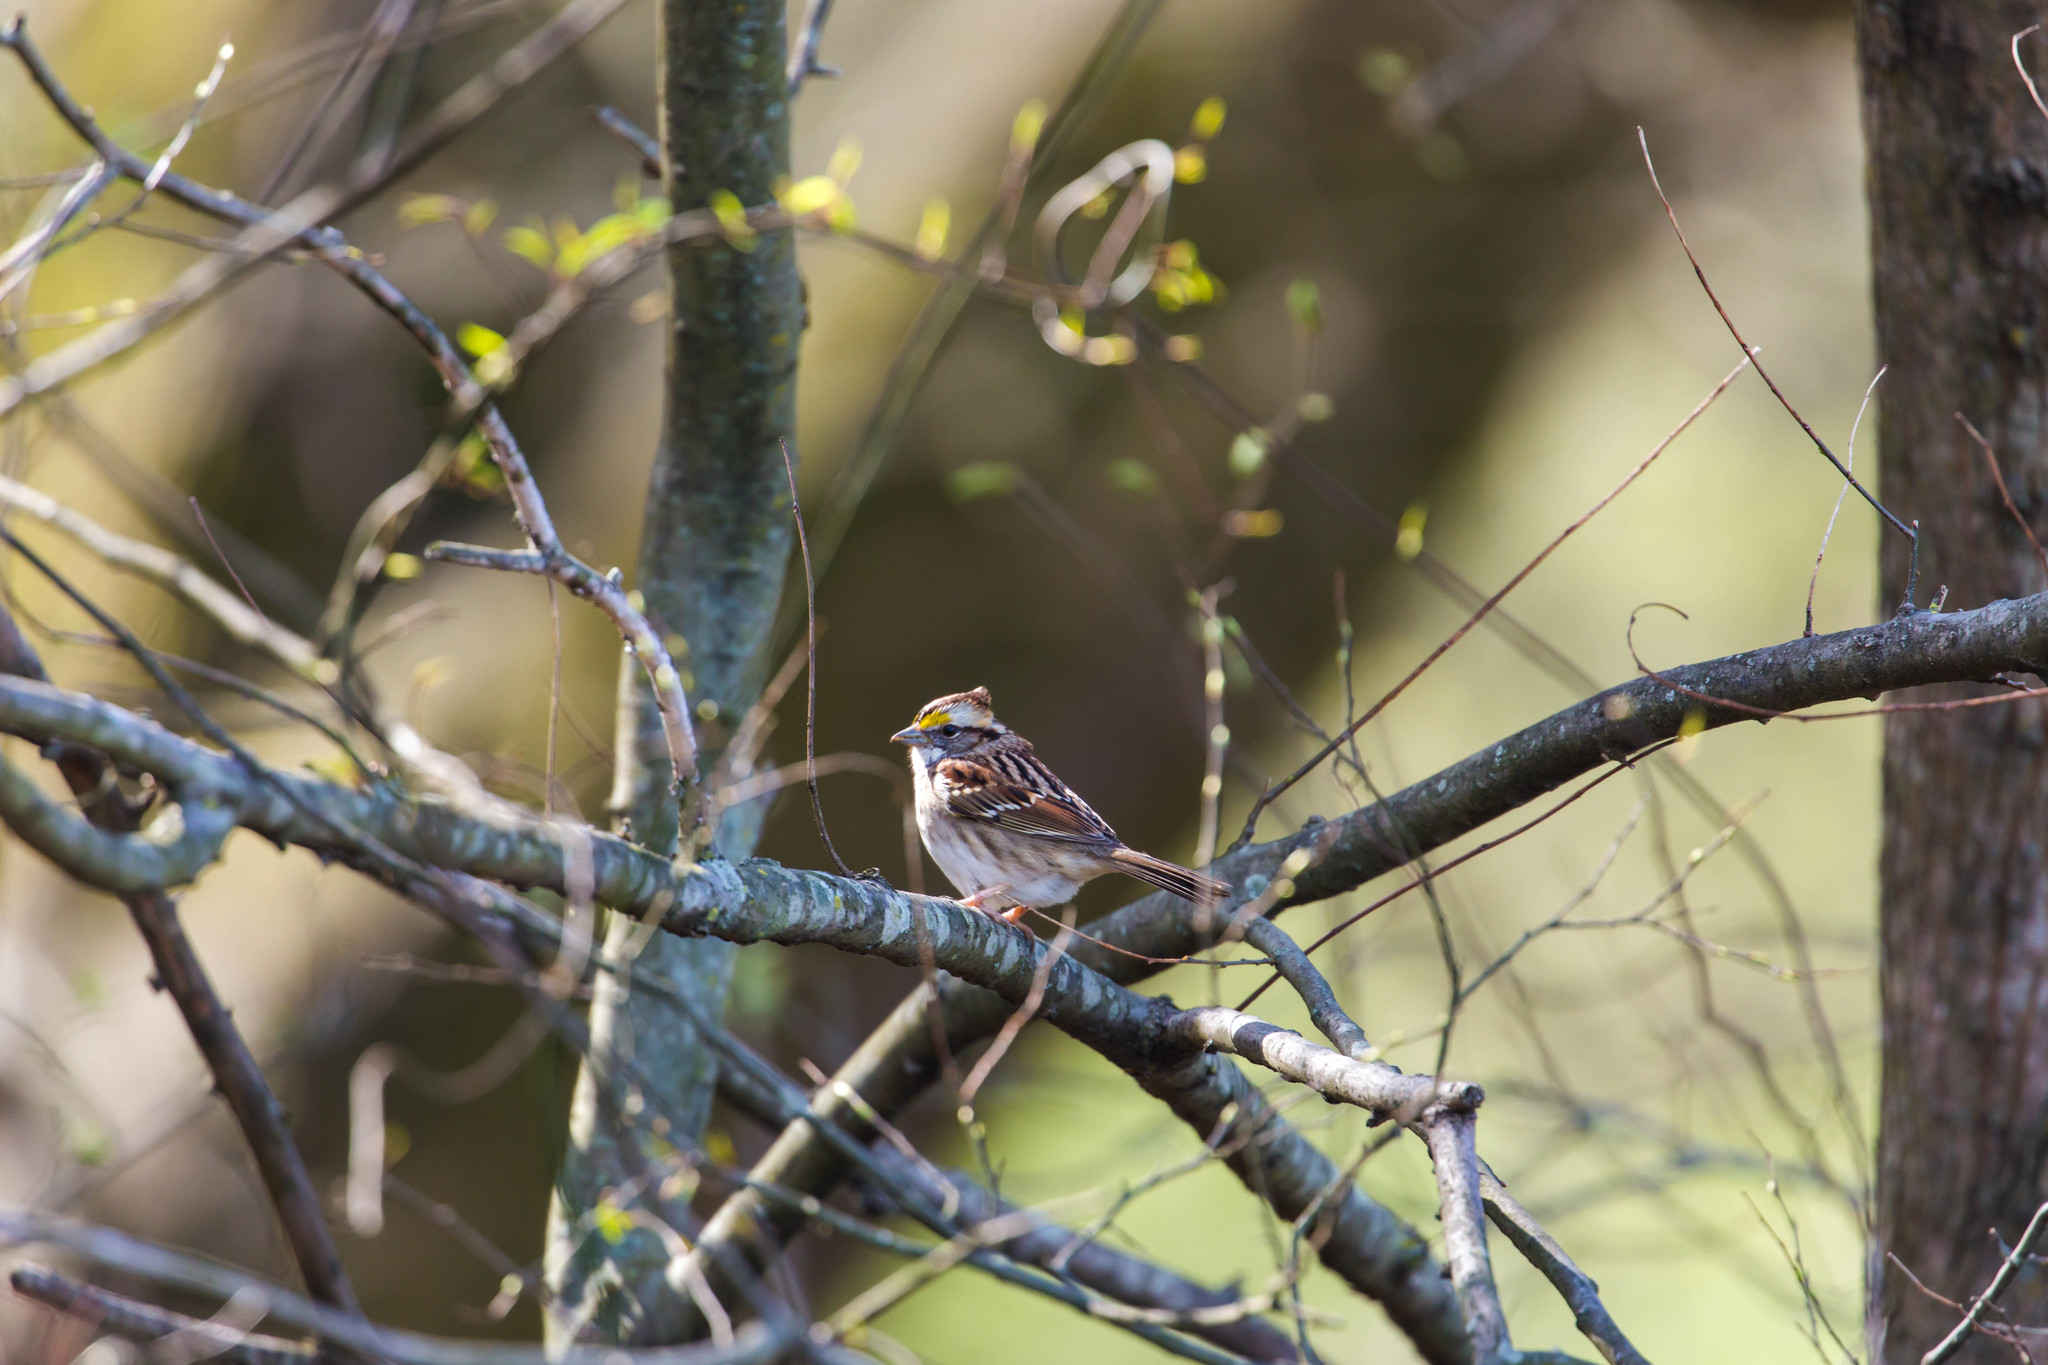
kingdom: Animalia
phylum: Chordata
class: Aves
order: Passeriformes
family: Passerellidae
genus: Zonotrichia
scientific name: Zonotrichia albicollis
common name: White-throated sparrow
